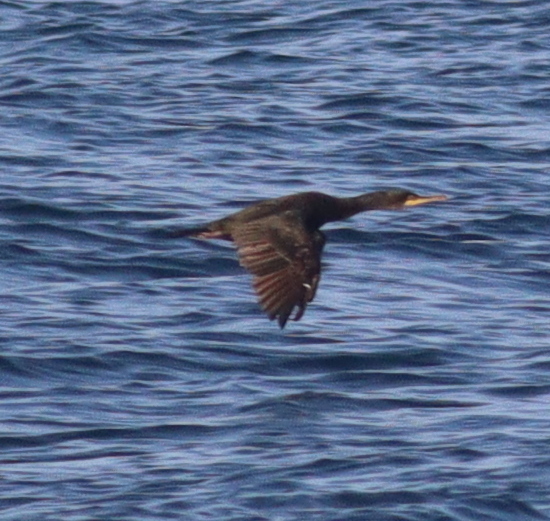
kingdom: Animalia
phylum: Chordata
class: Aves
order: Suliformes
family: Phalacrocoracidae
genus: Phalacrocorax
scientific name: Phalacrocorax aristotelis
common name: European shag
